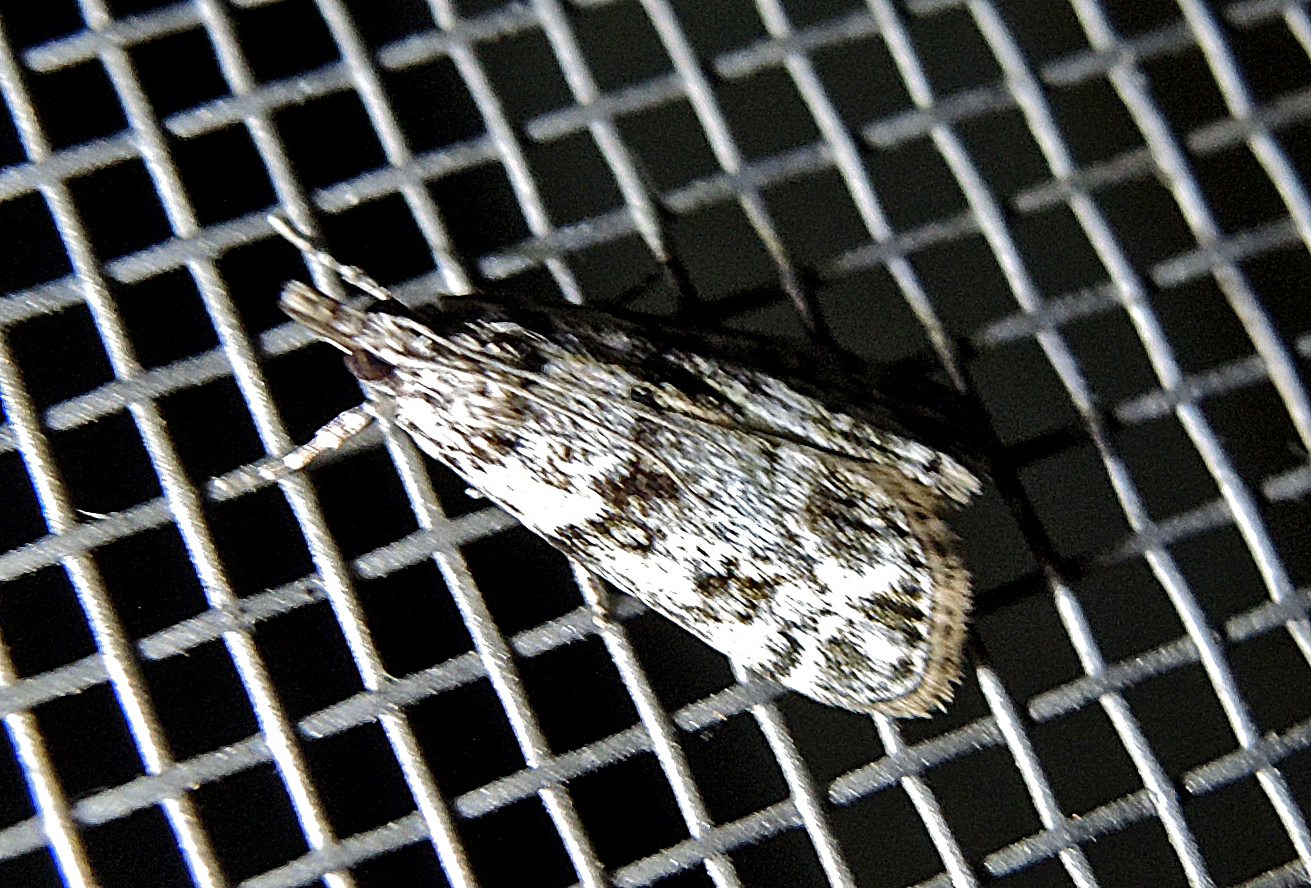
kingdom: Animalia
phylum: Arthropoda
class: Insecta
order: Lepidoptera
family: Crambidae
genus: Eudonia
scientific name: Eudonia mercurella
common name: Small grey
